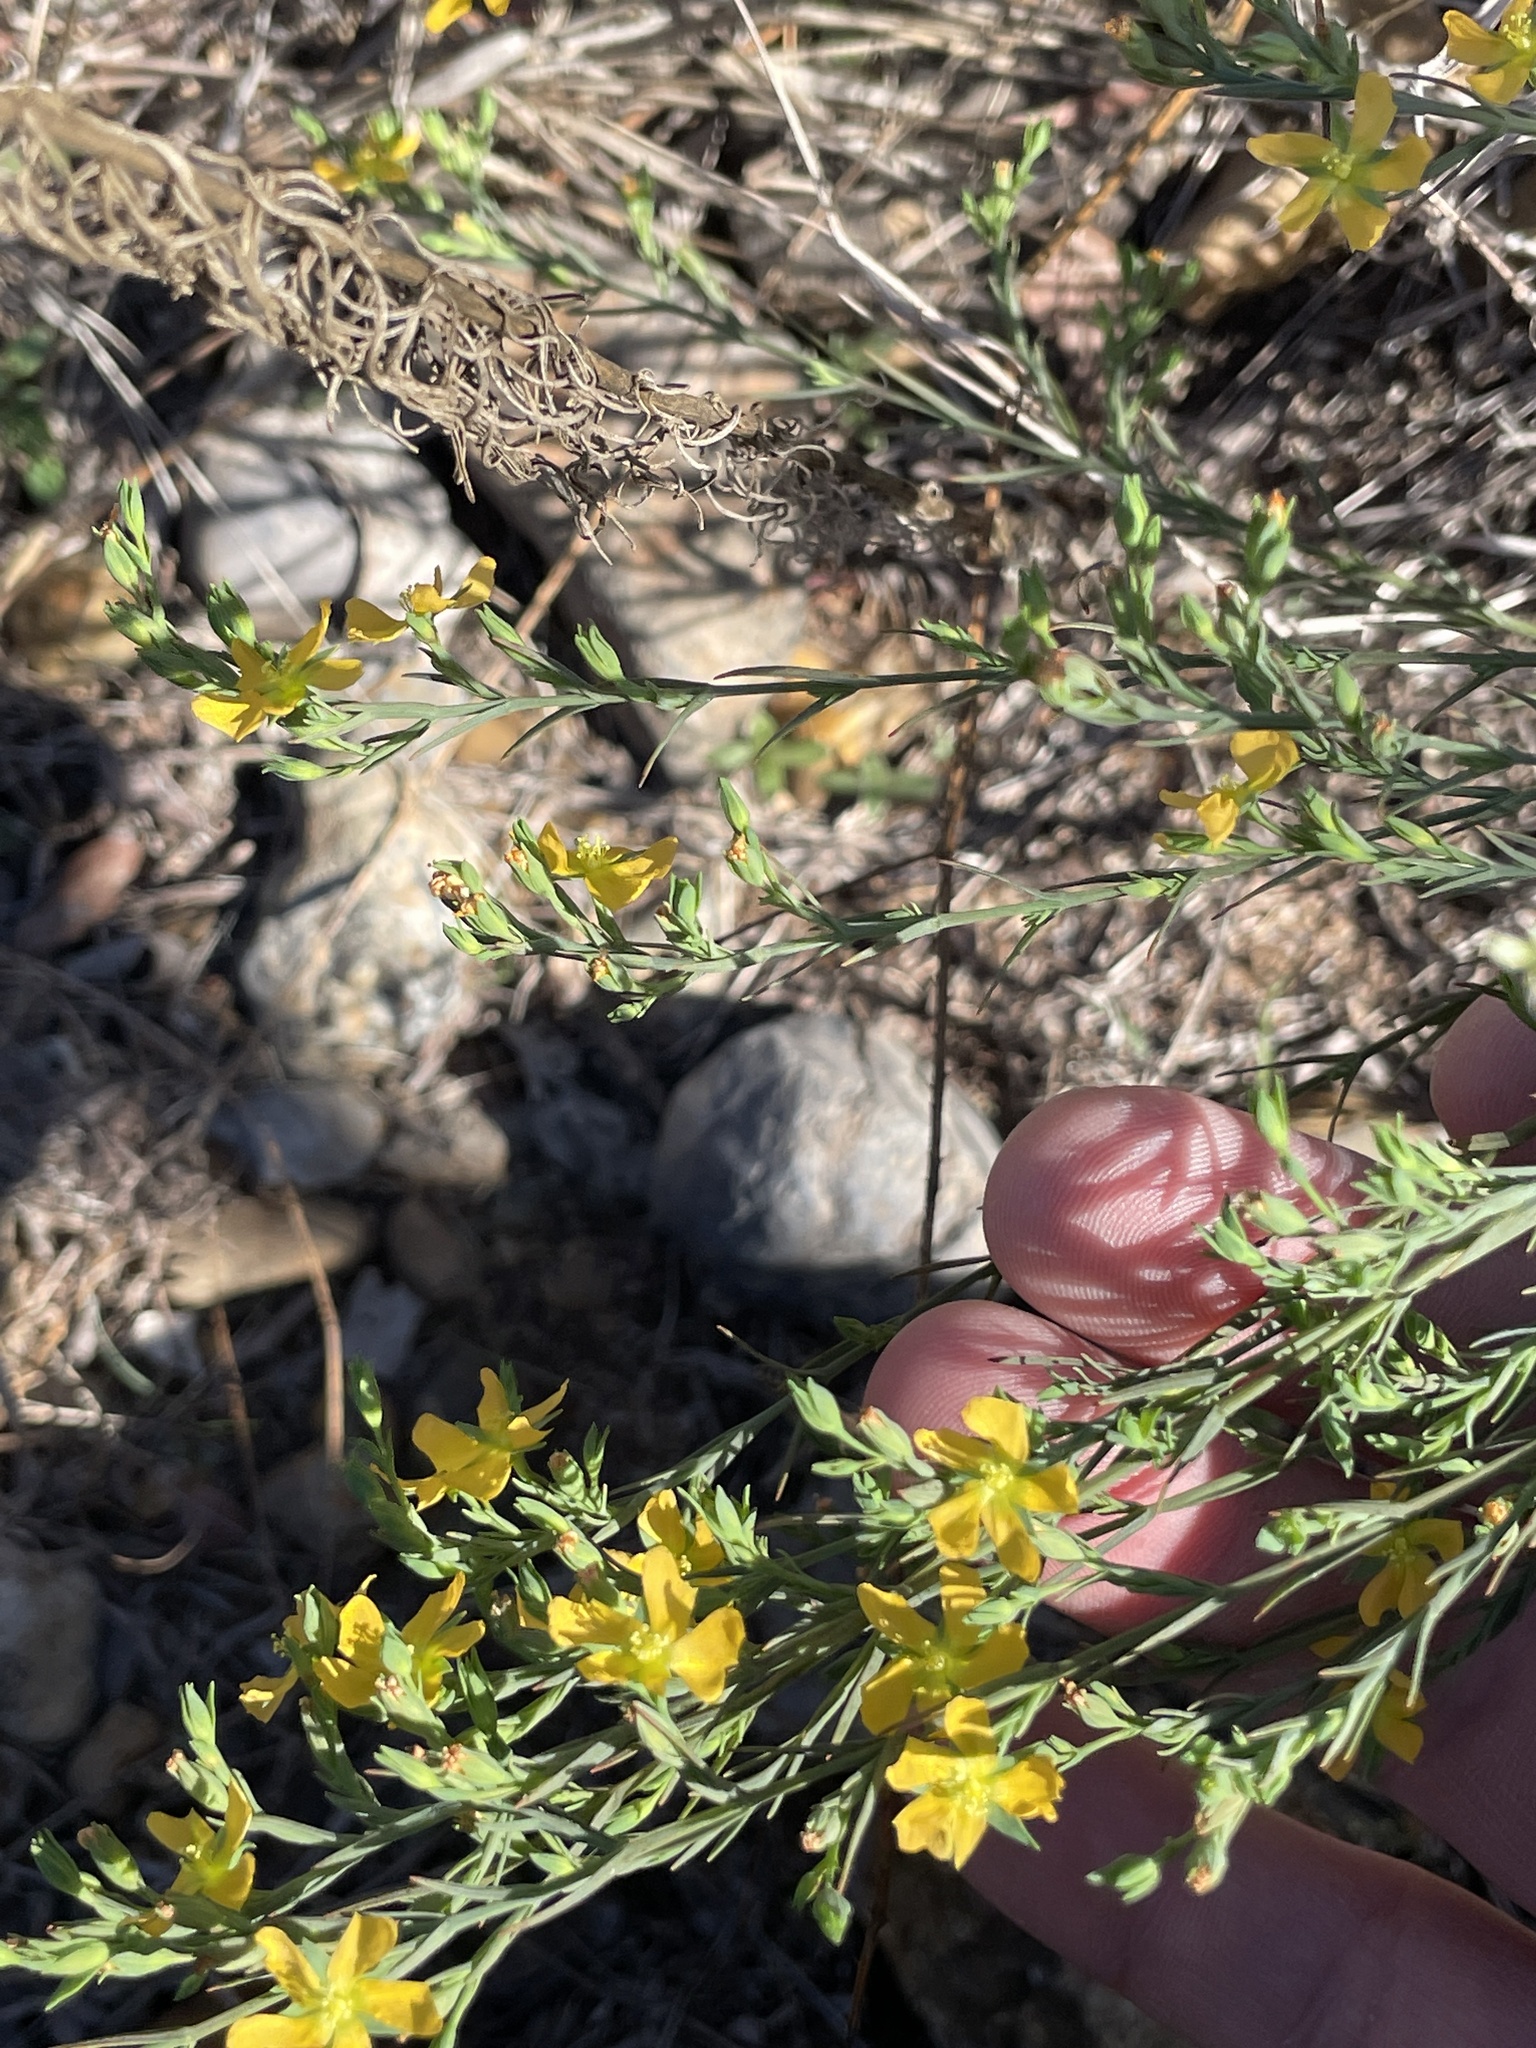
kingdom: Plantae
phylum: Tracheophyta
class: Magnoliopsida
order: Malpighiales
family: Hypericaceae
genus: Hypericum
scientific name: Hypericum drummondii
